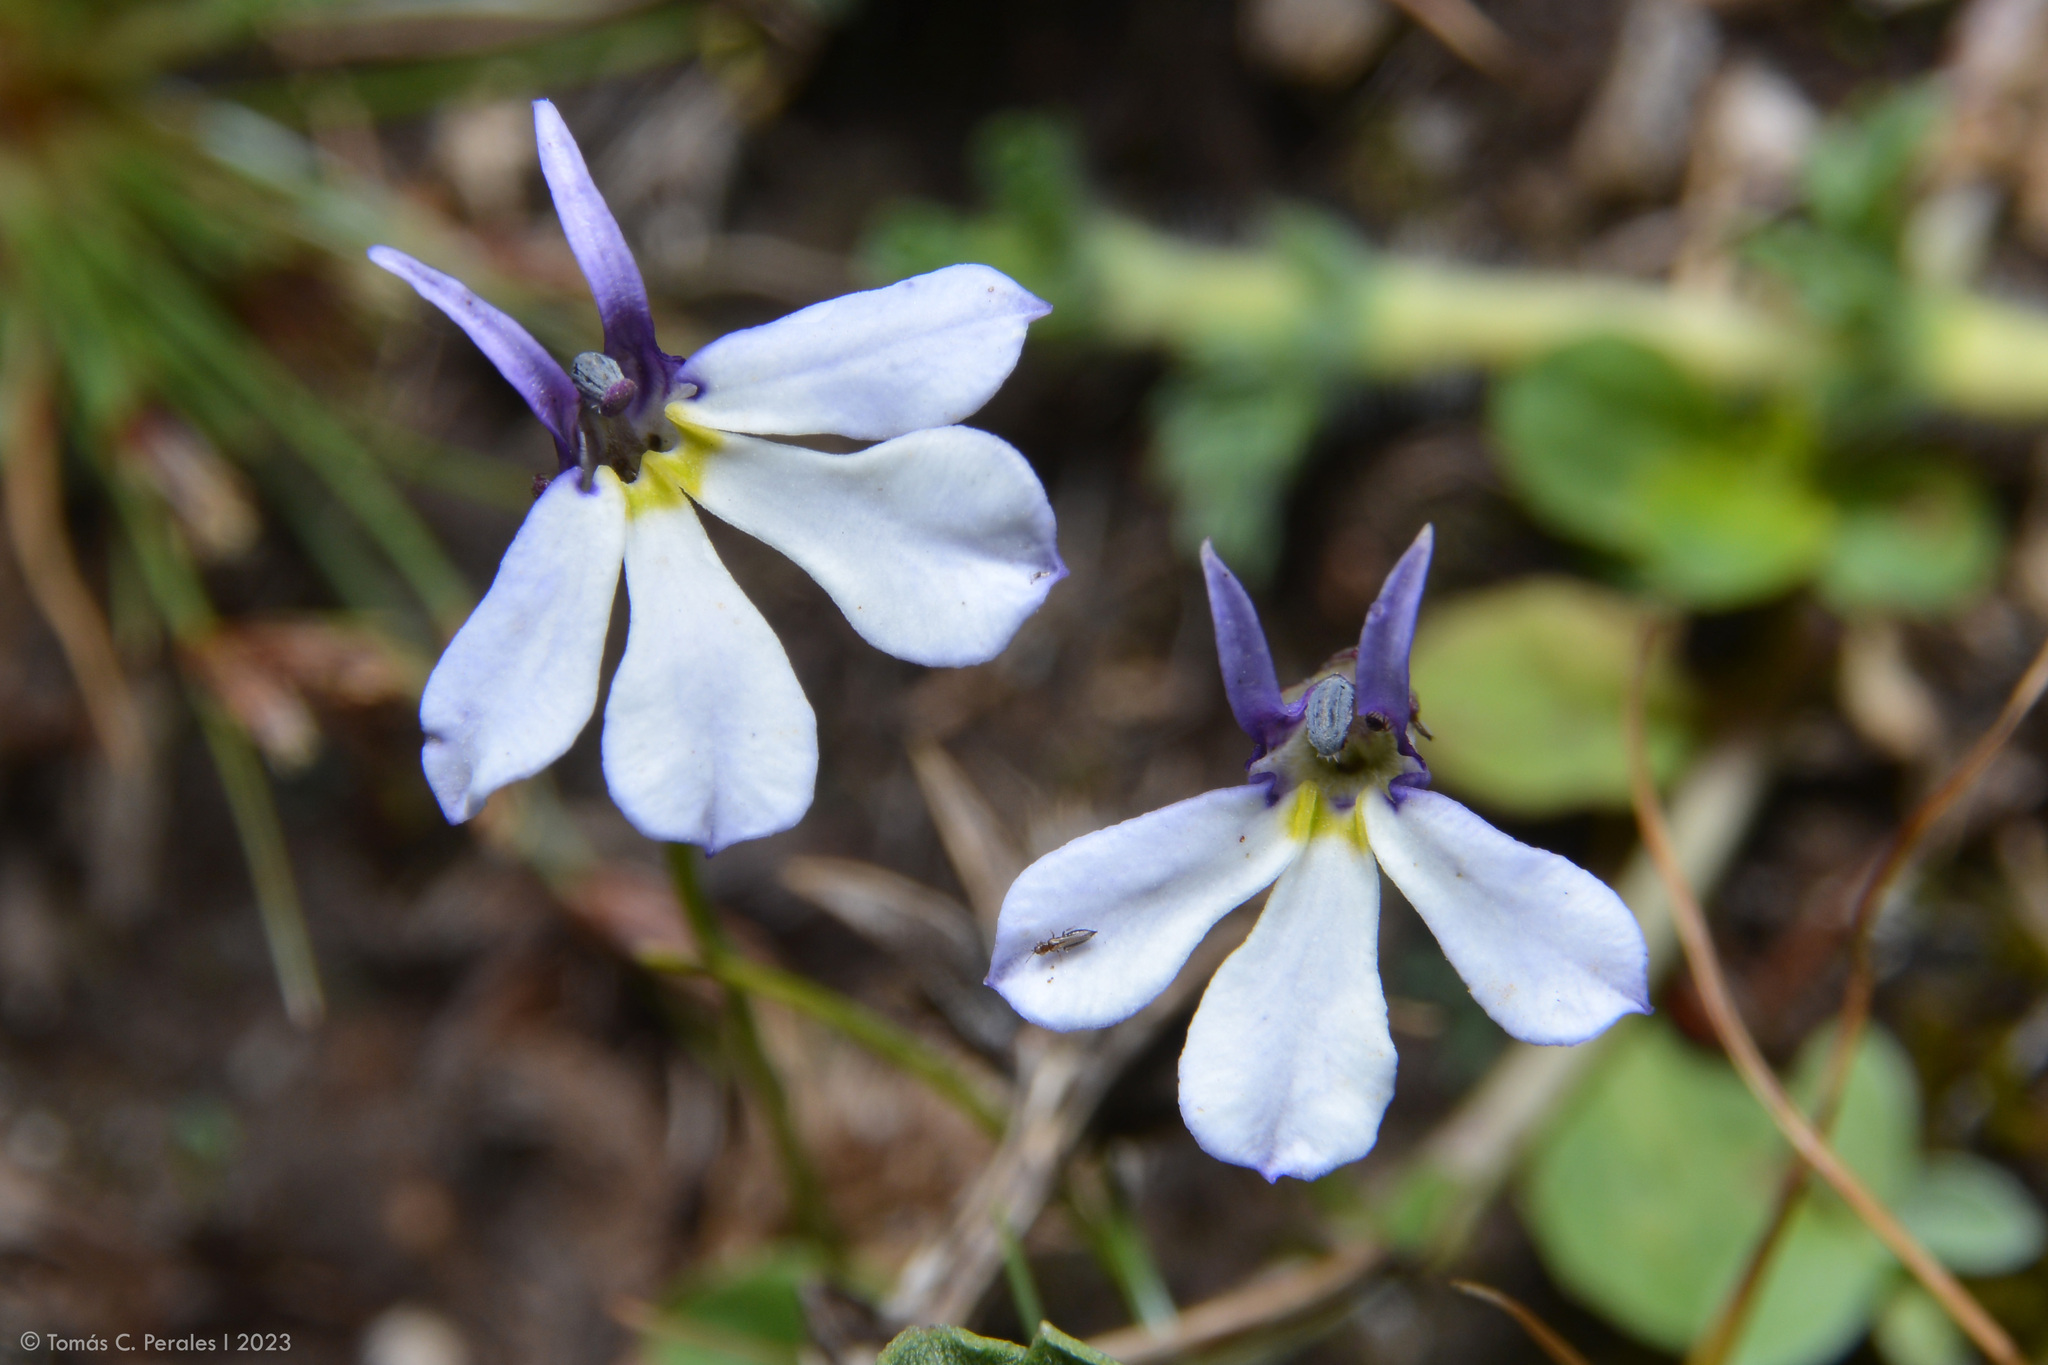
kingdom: Plantae
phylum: Tracheophyta
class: Magnoliopsida
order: Asterales
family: Campanulaceae
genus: Lobelia
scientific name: Lobelia nana
